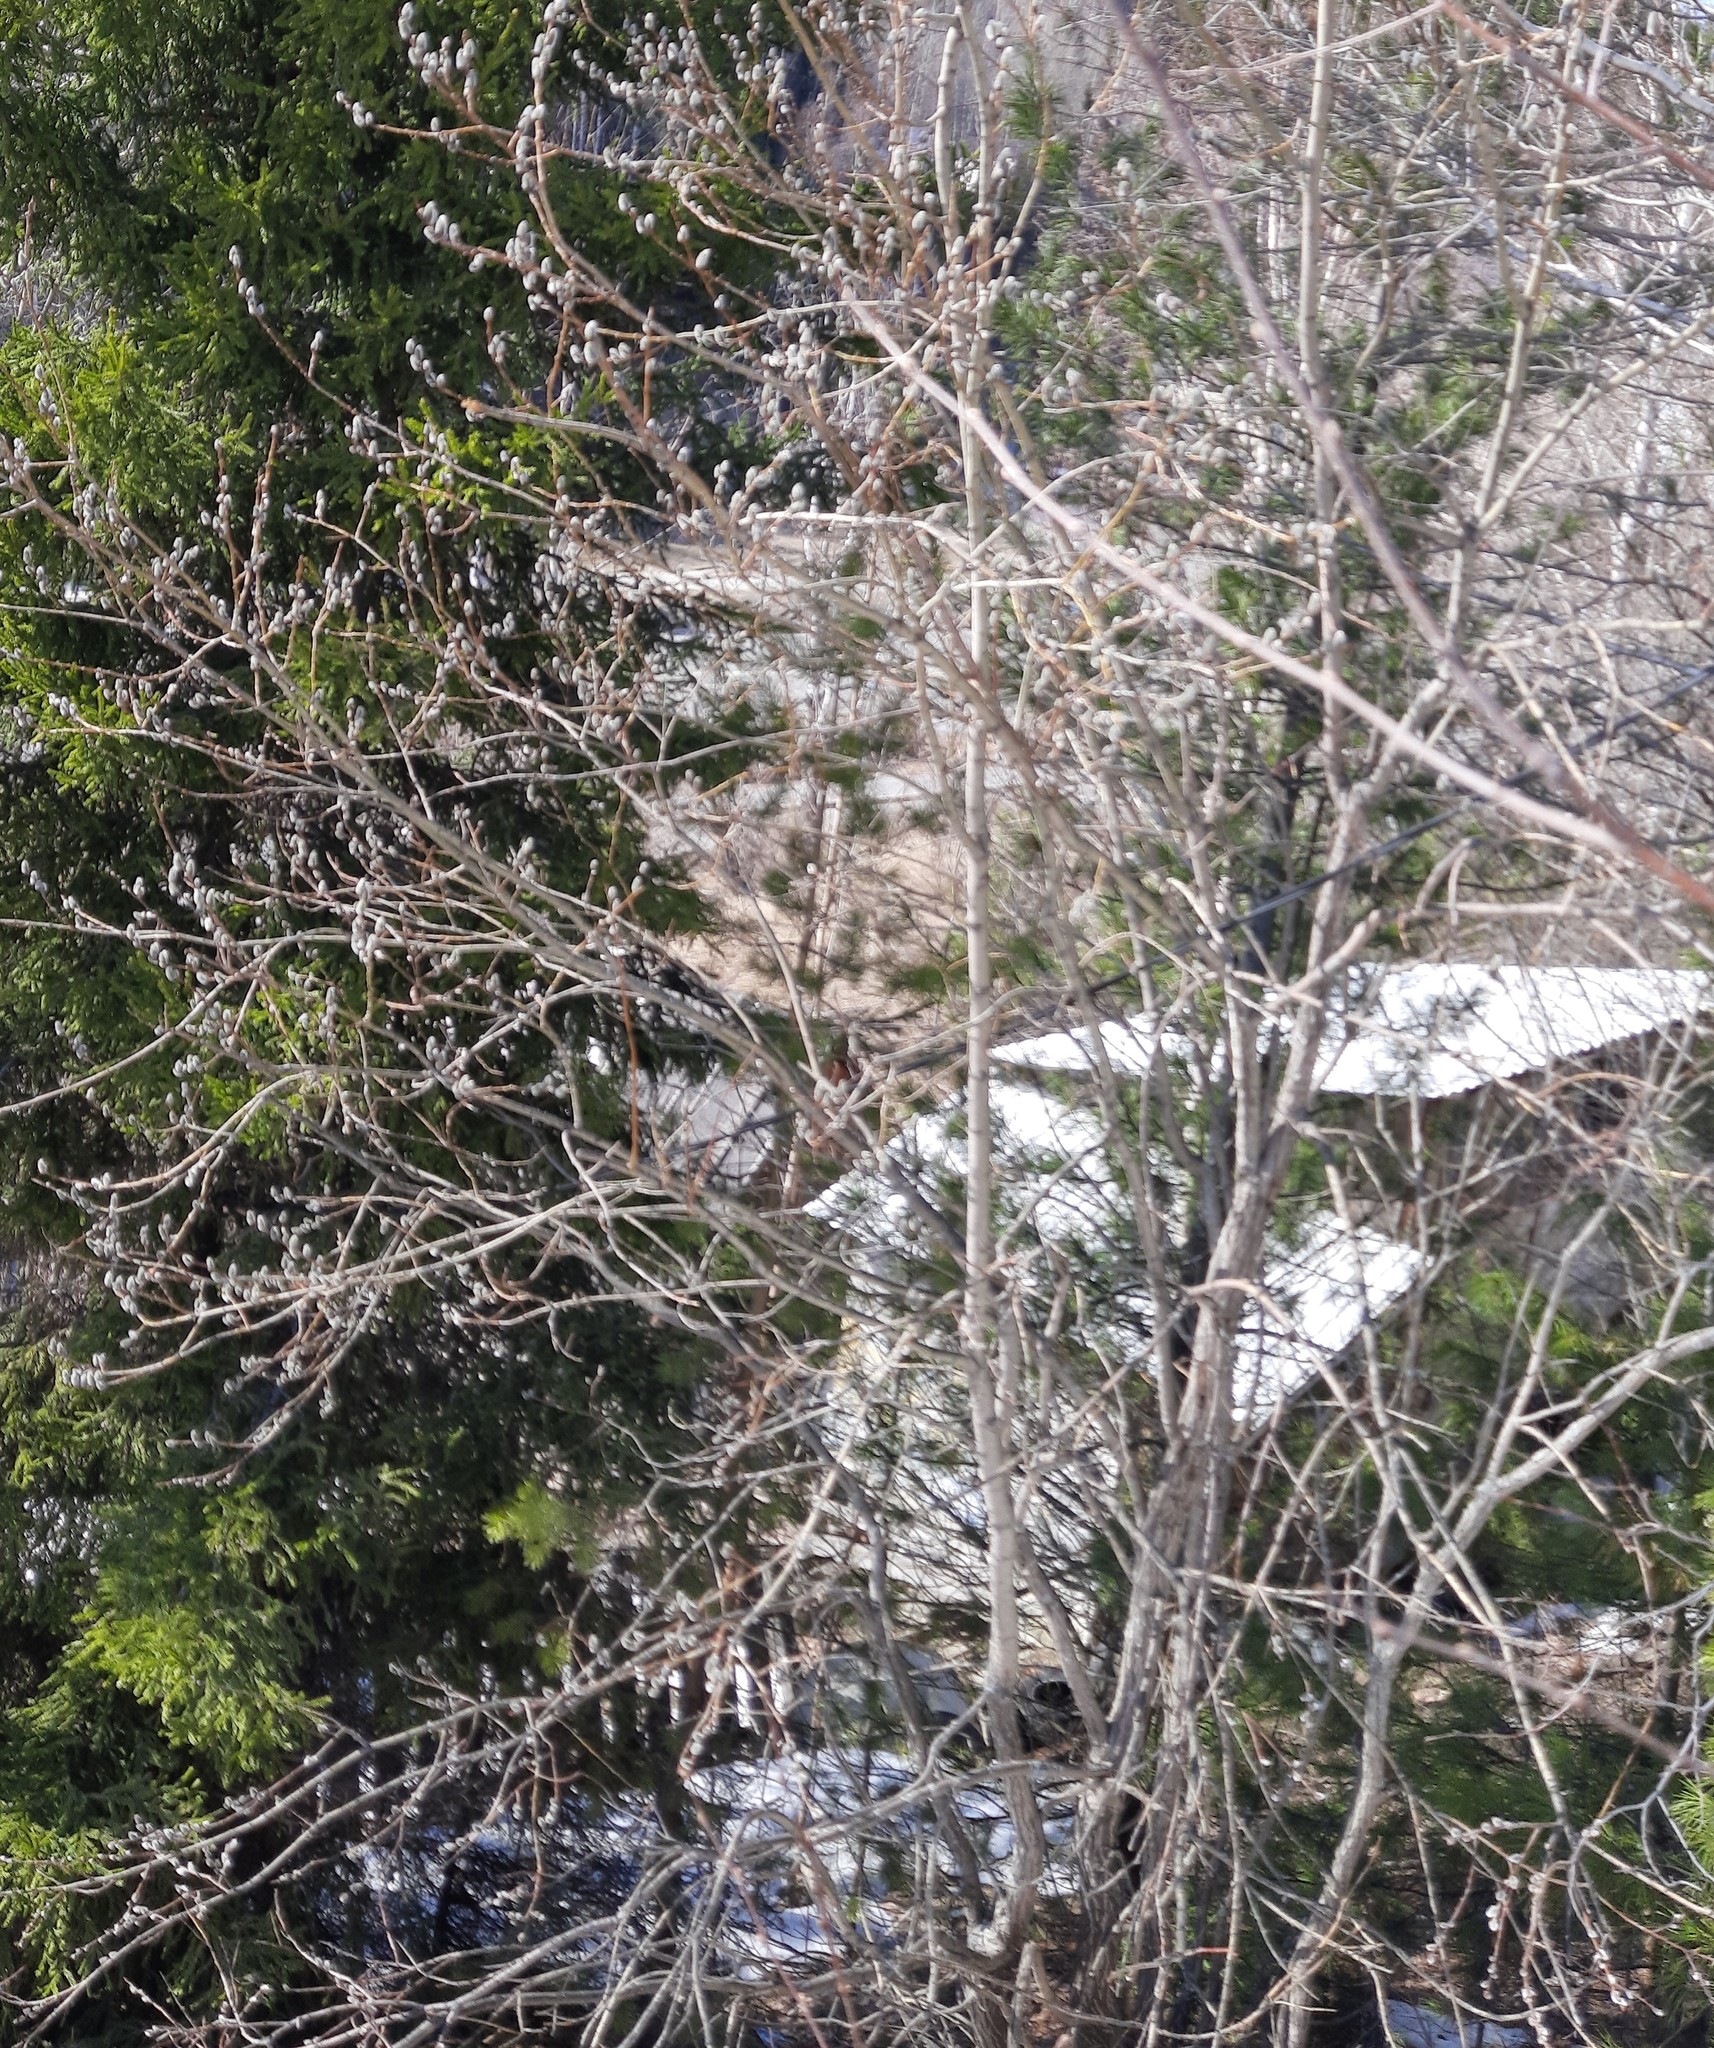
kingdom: Plantae
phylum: Tracheophyta
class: Magnoliopsida
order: Malpighiales
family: Salicaceae
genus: Salix
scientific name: Salix caprea
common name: Goat willow
